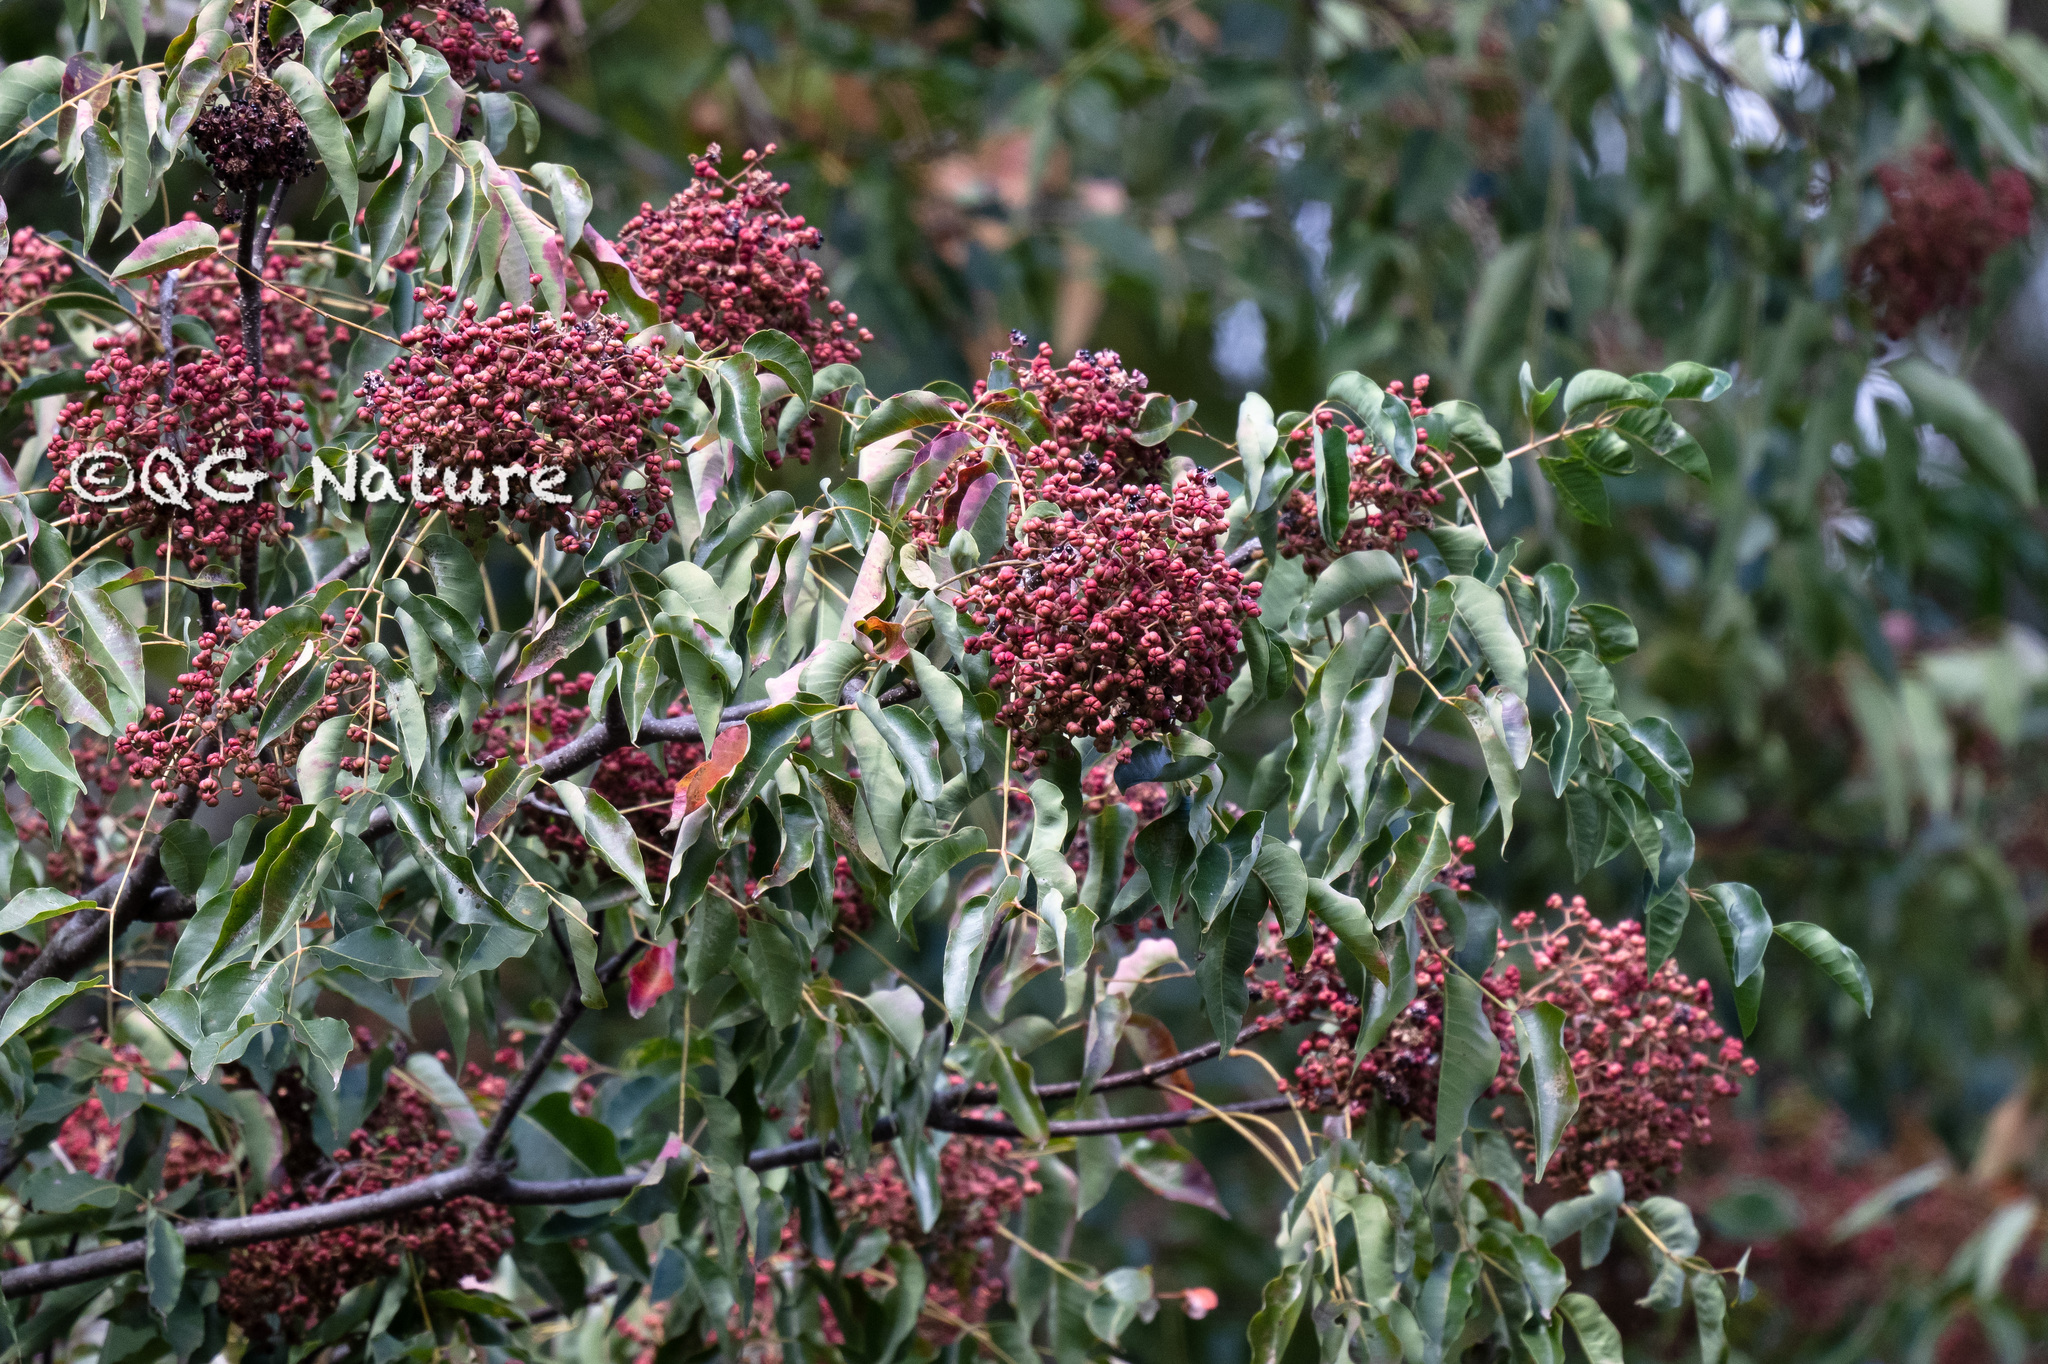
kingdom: Plantae
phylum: Tracheophyta
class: Magnoliopsida
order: Sapindales
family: Rutaceae
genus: Tetradium
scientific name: Tetradium glabrifolium
